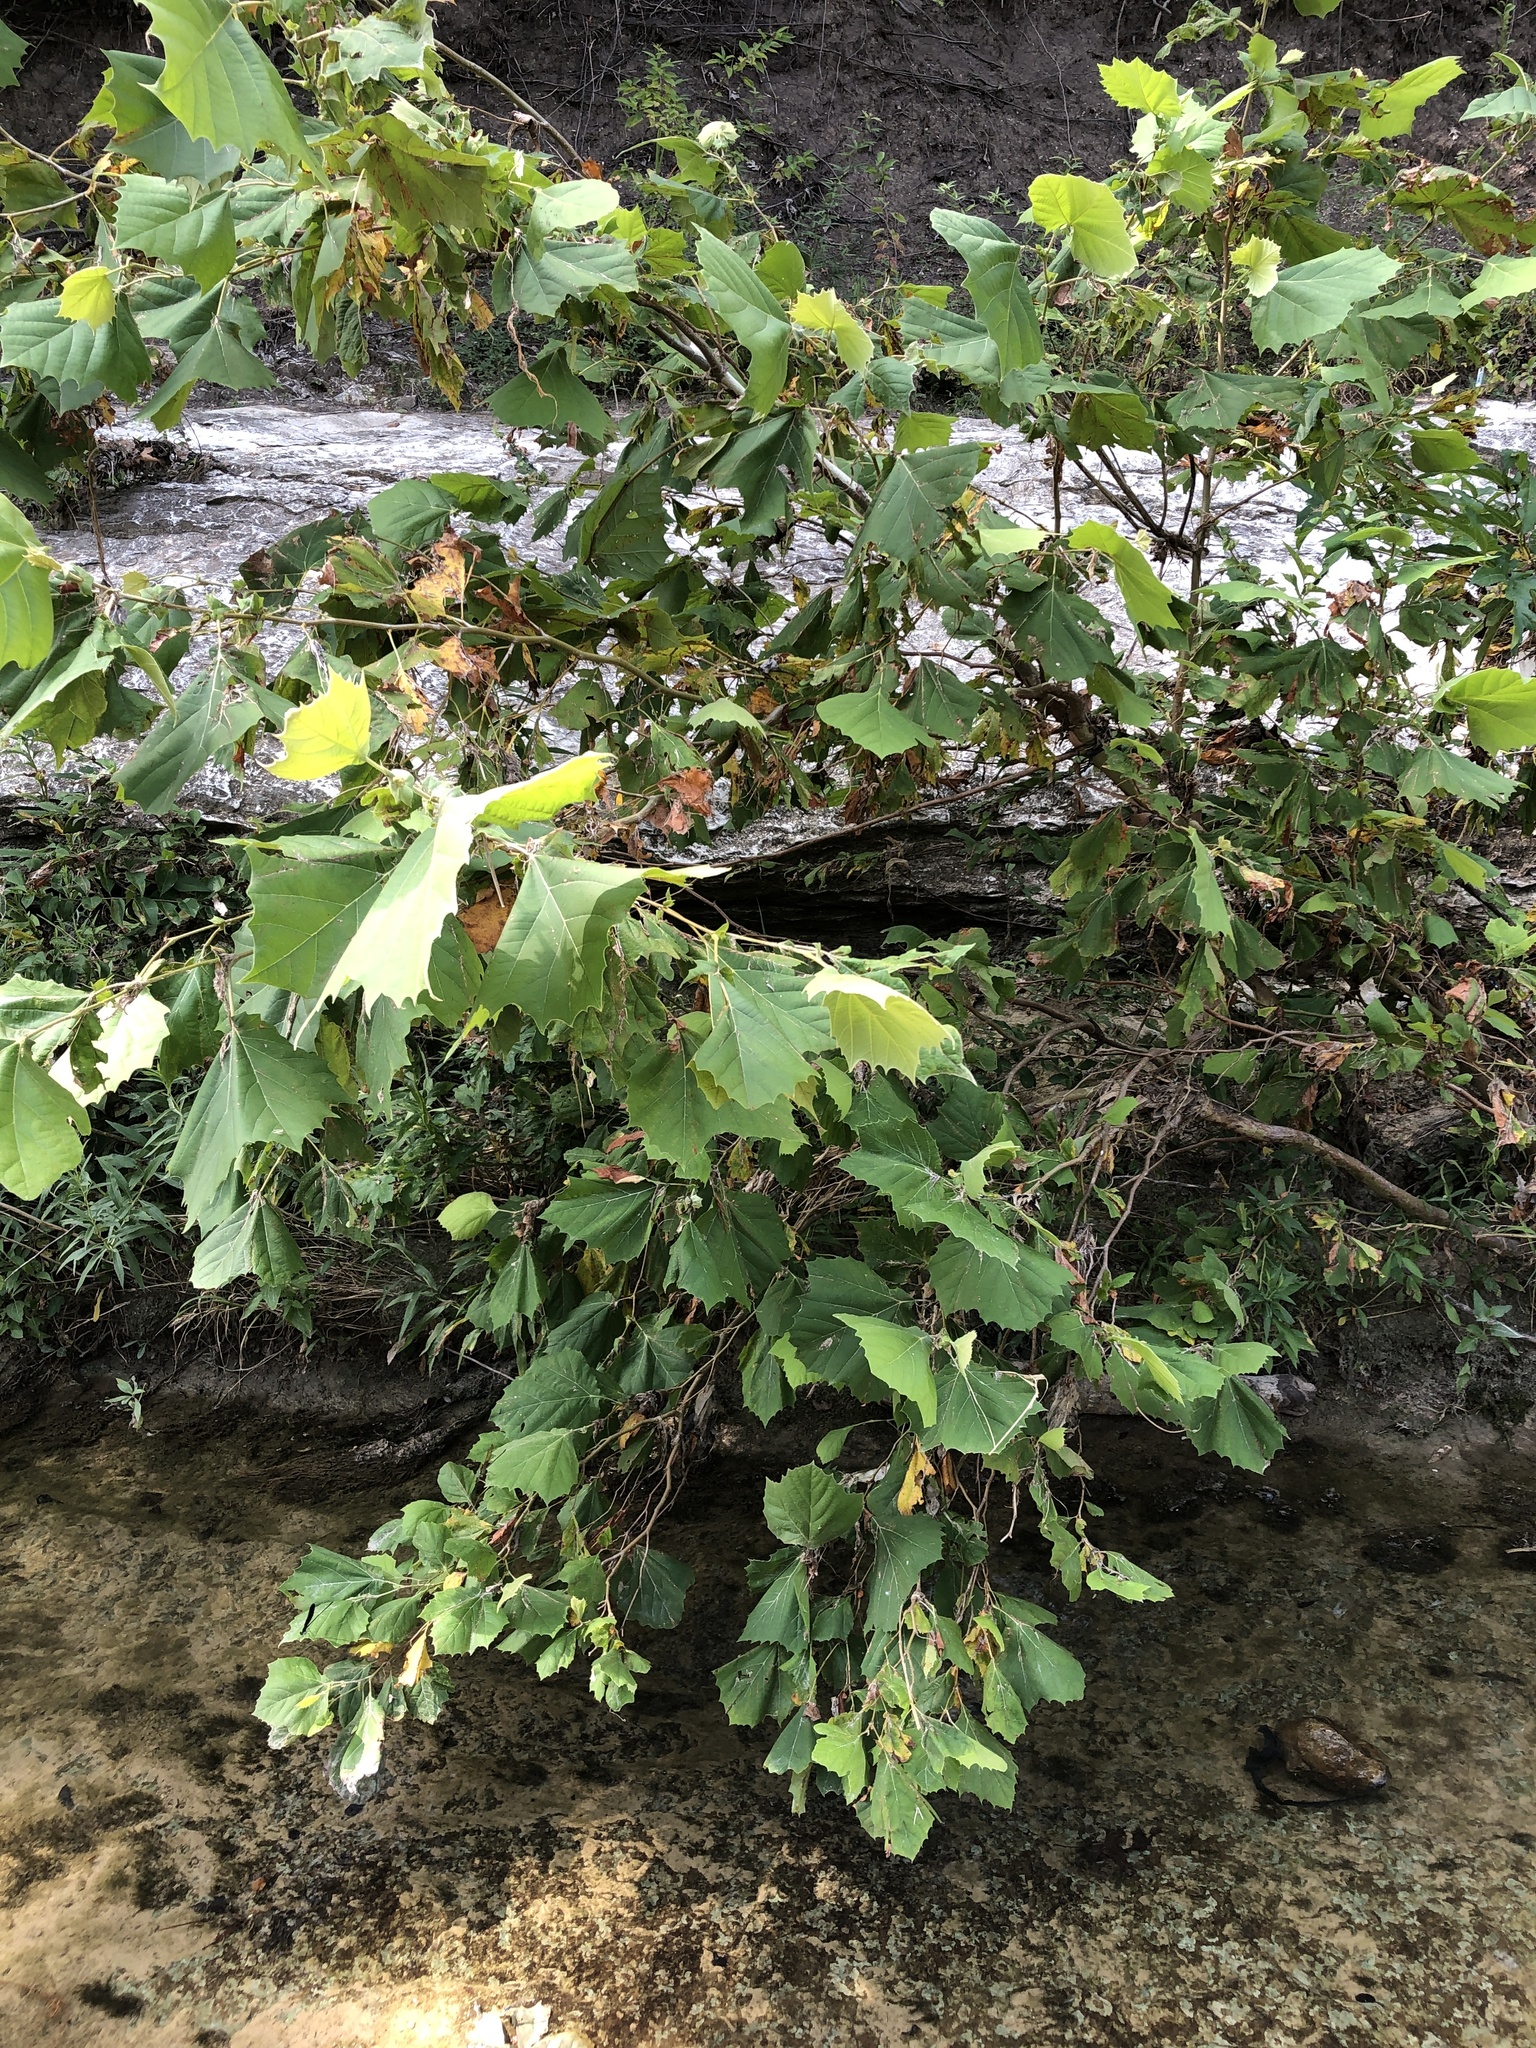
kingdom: Plantae
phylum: Tracheophyta
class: Magnoliopsida
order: Proteales
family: Platanaceae
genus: Platanus
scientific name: Platanus occidentalis
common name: American sycamore
